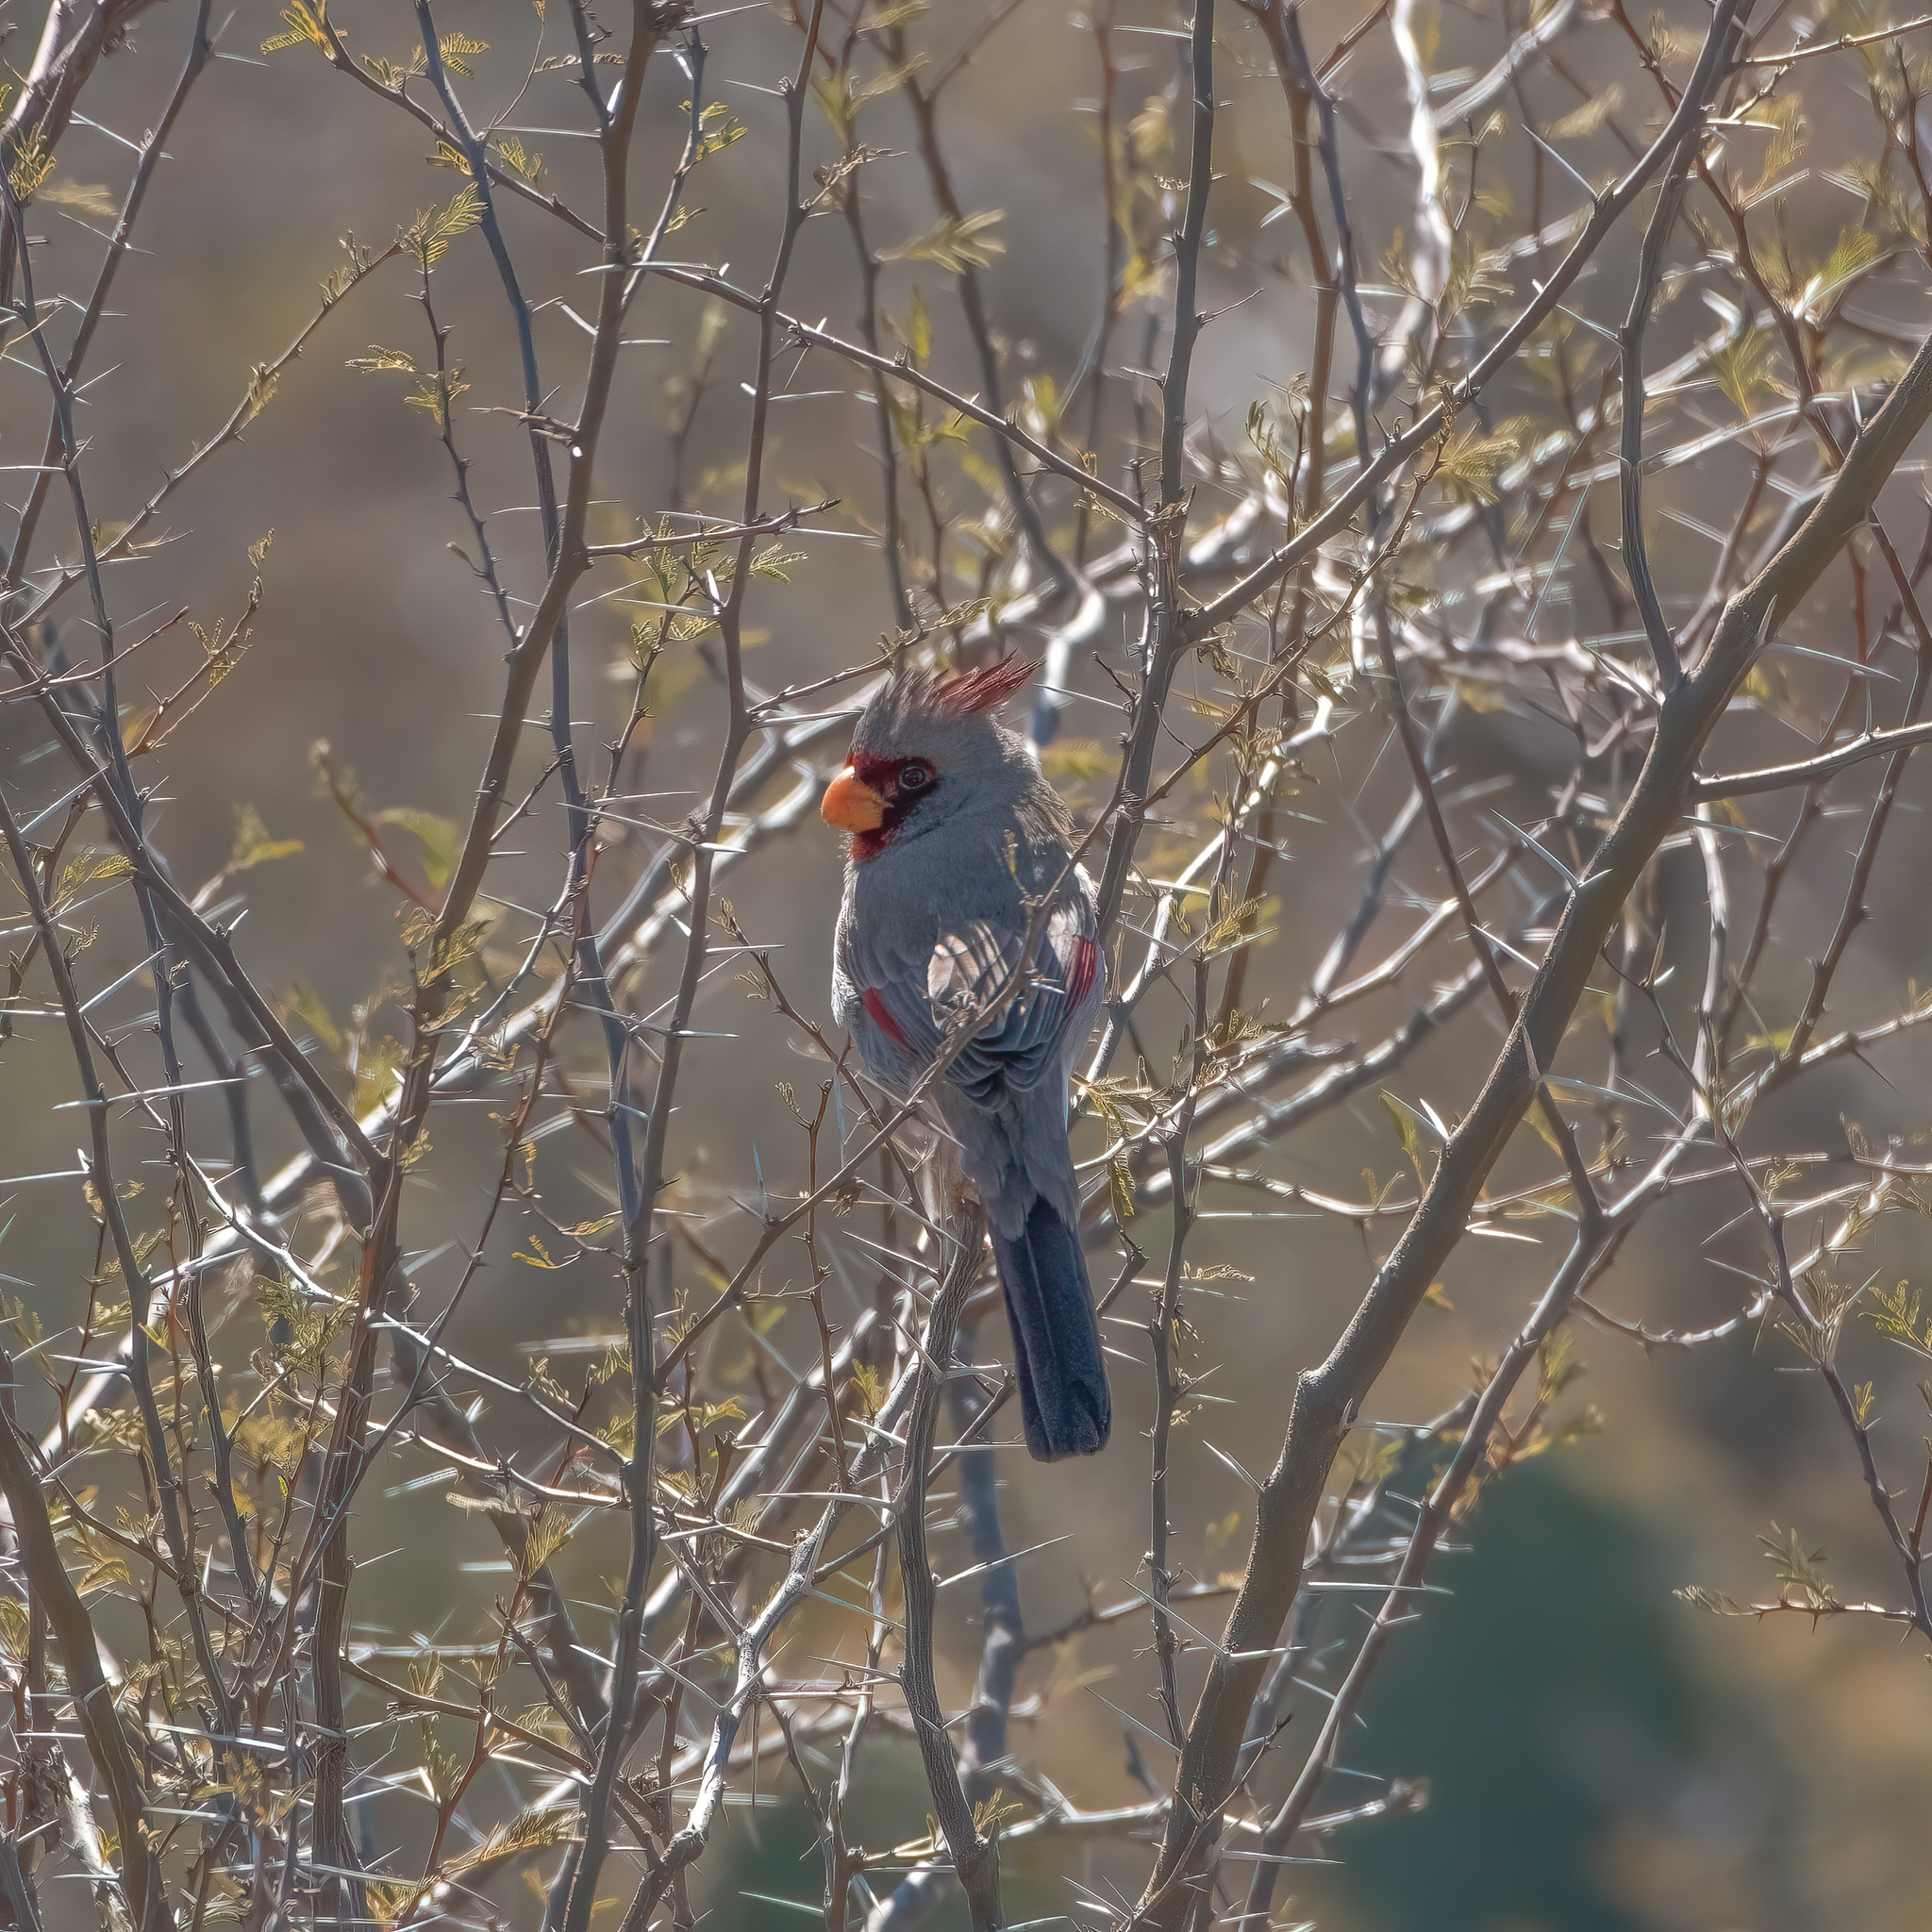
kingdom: Animalia
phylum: Chordata
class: Aves
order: Passeriformes
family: Cardinalidae
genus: Cardinalis
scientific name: Cardinalis sinuatus
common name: Pyrrhuloxia
